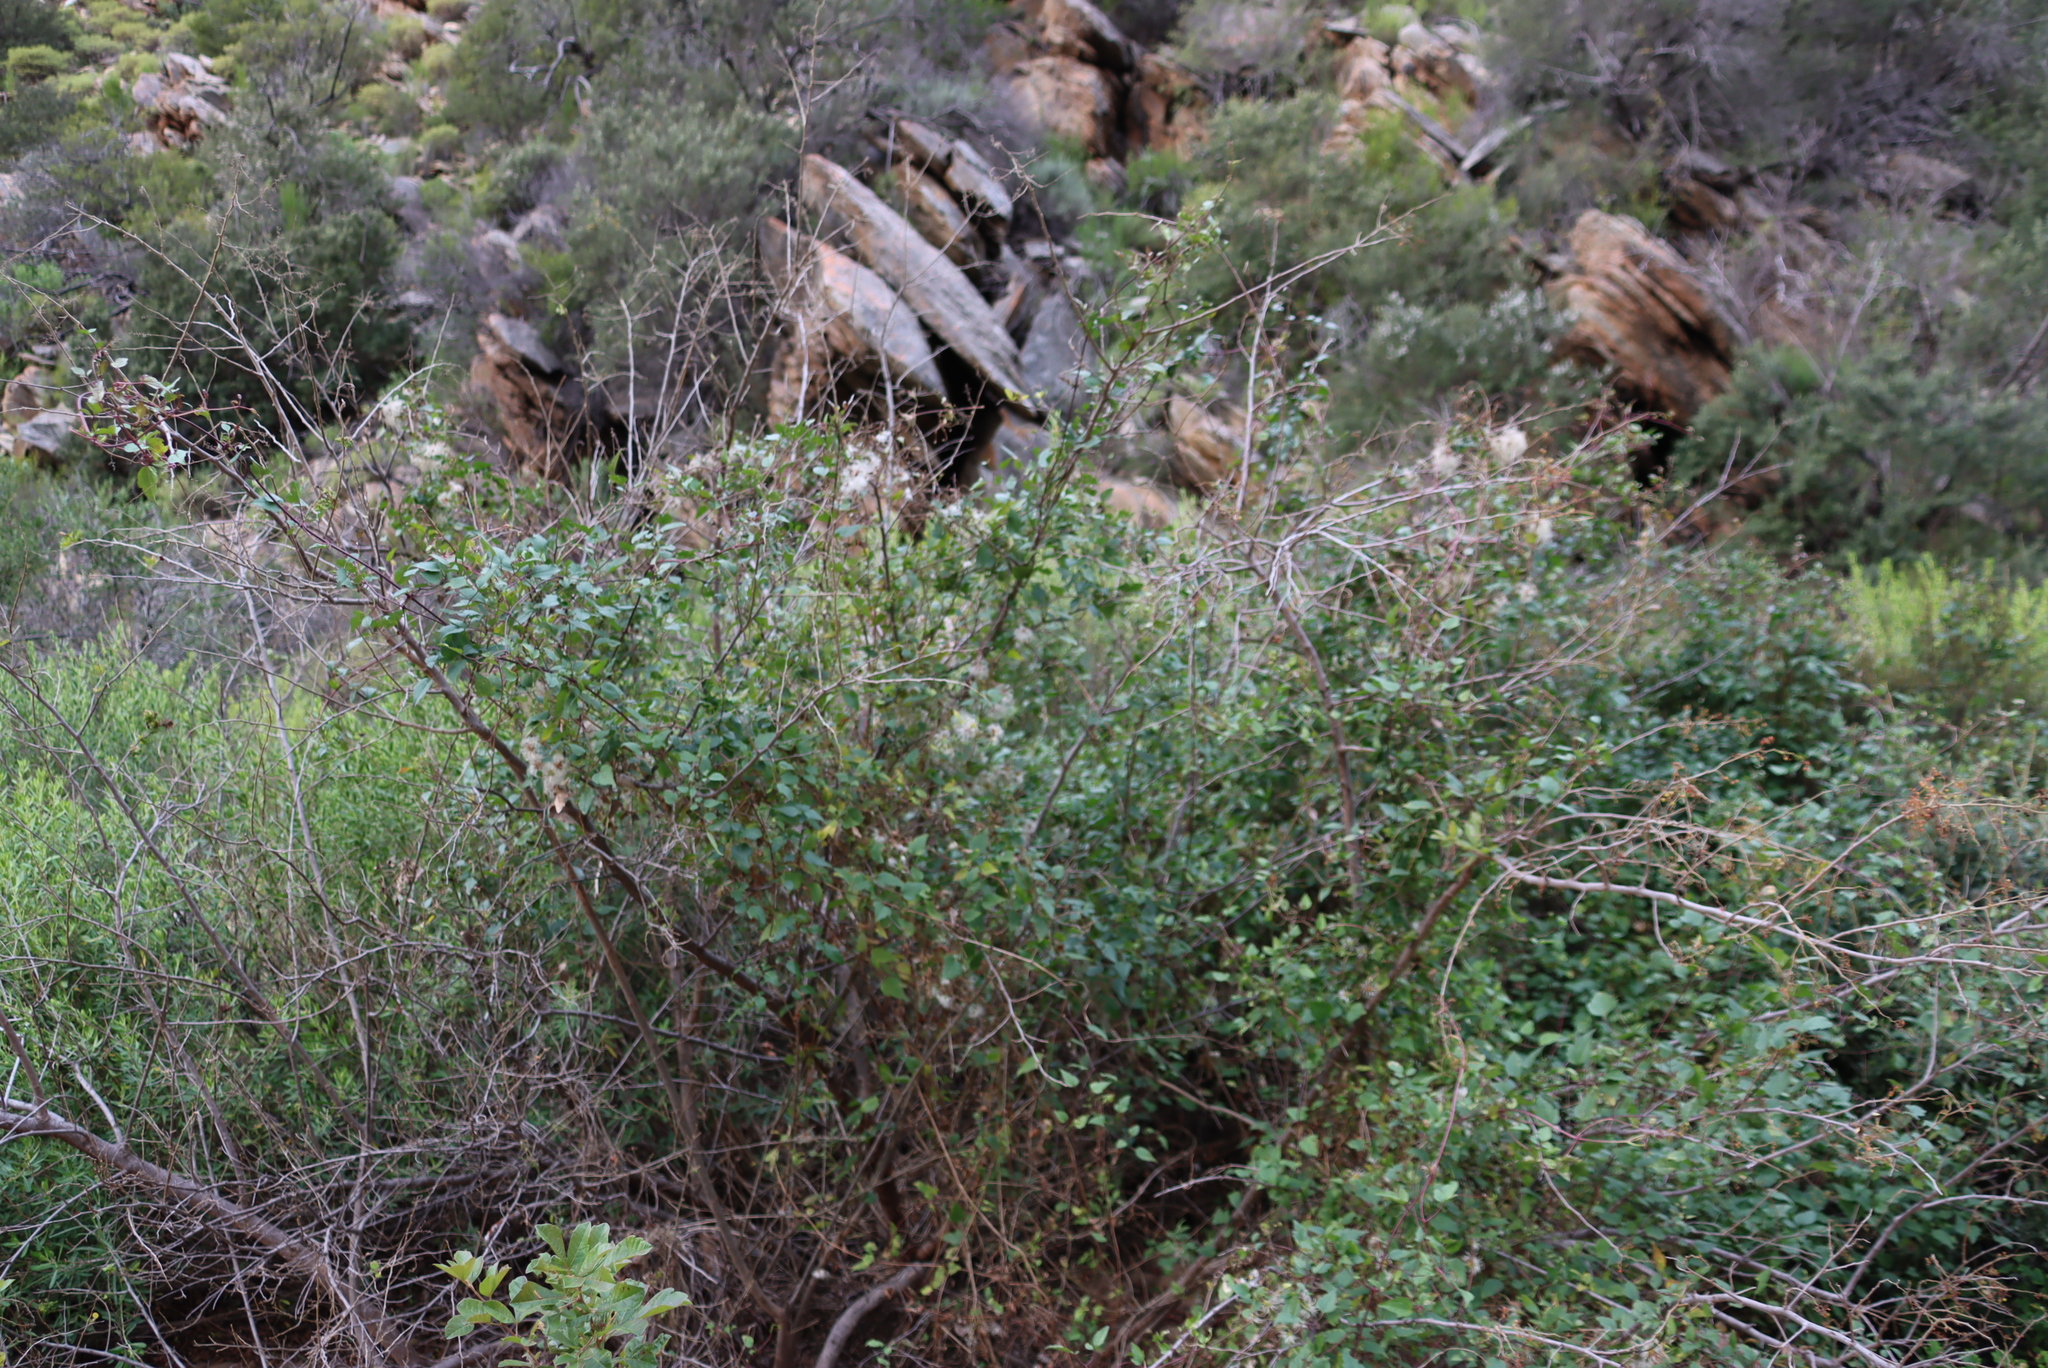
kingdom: Plantae
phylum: Tracheophyta
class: Magnoliopsida
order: Ranunculales
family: Ranunculaceae
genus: Clematis
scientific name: Clematis brachiata
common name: Traveler's-joy
